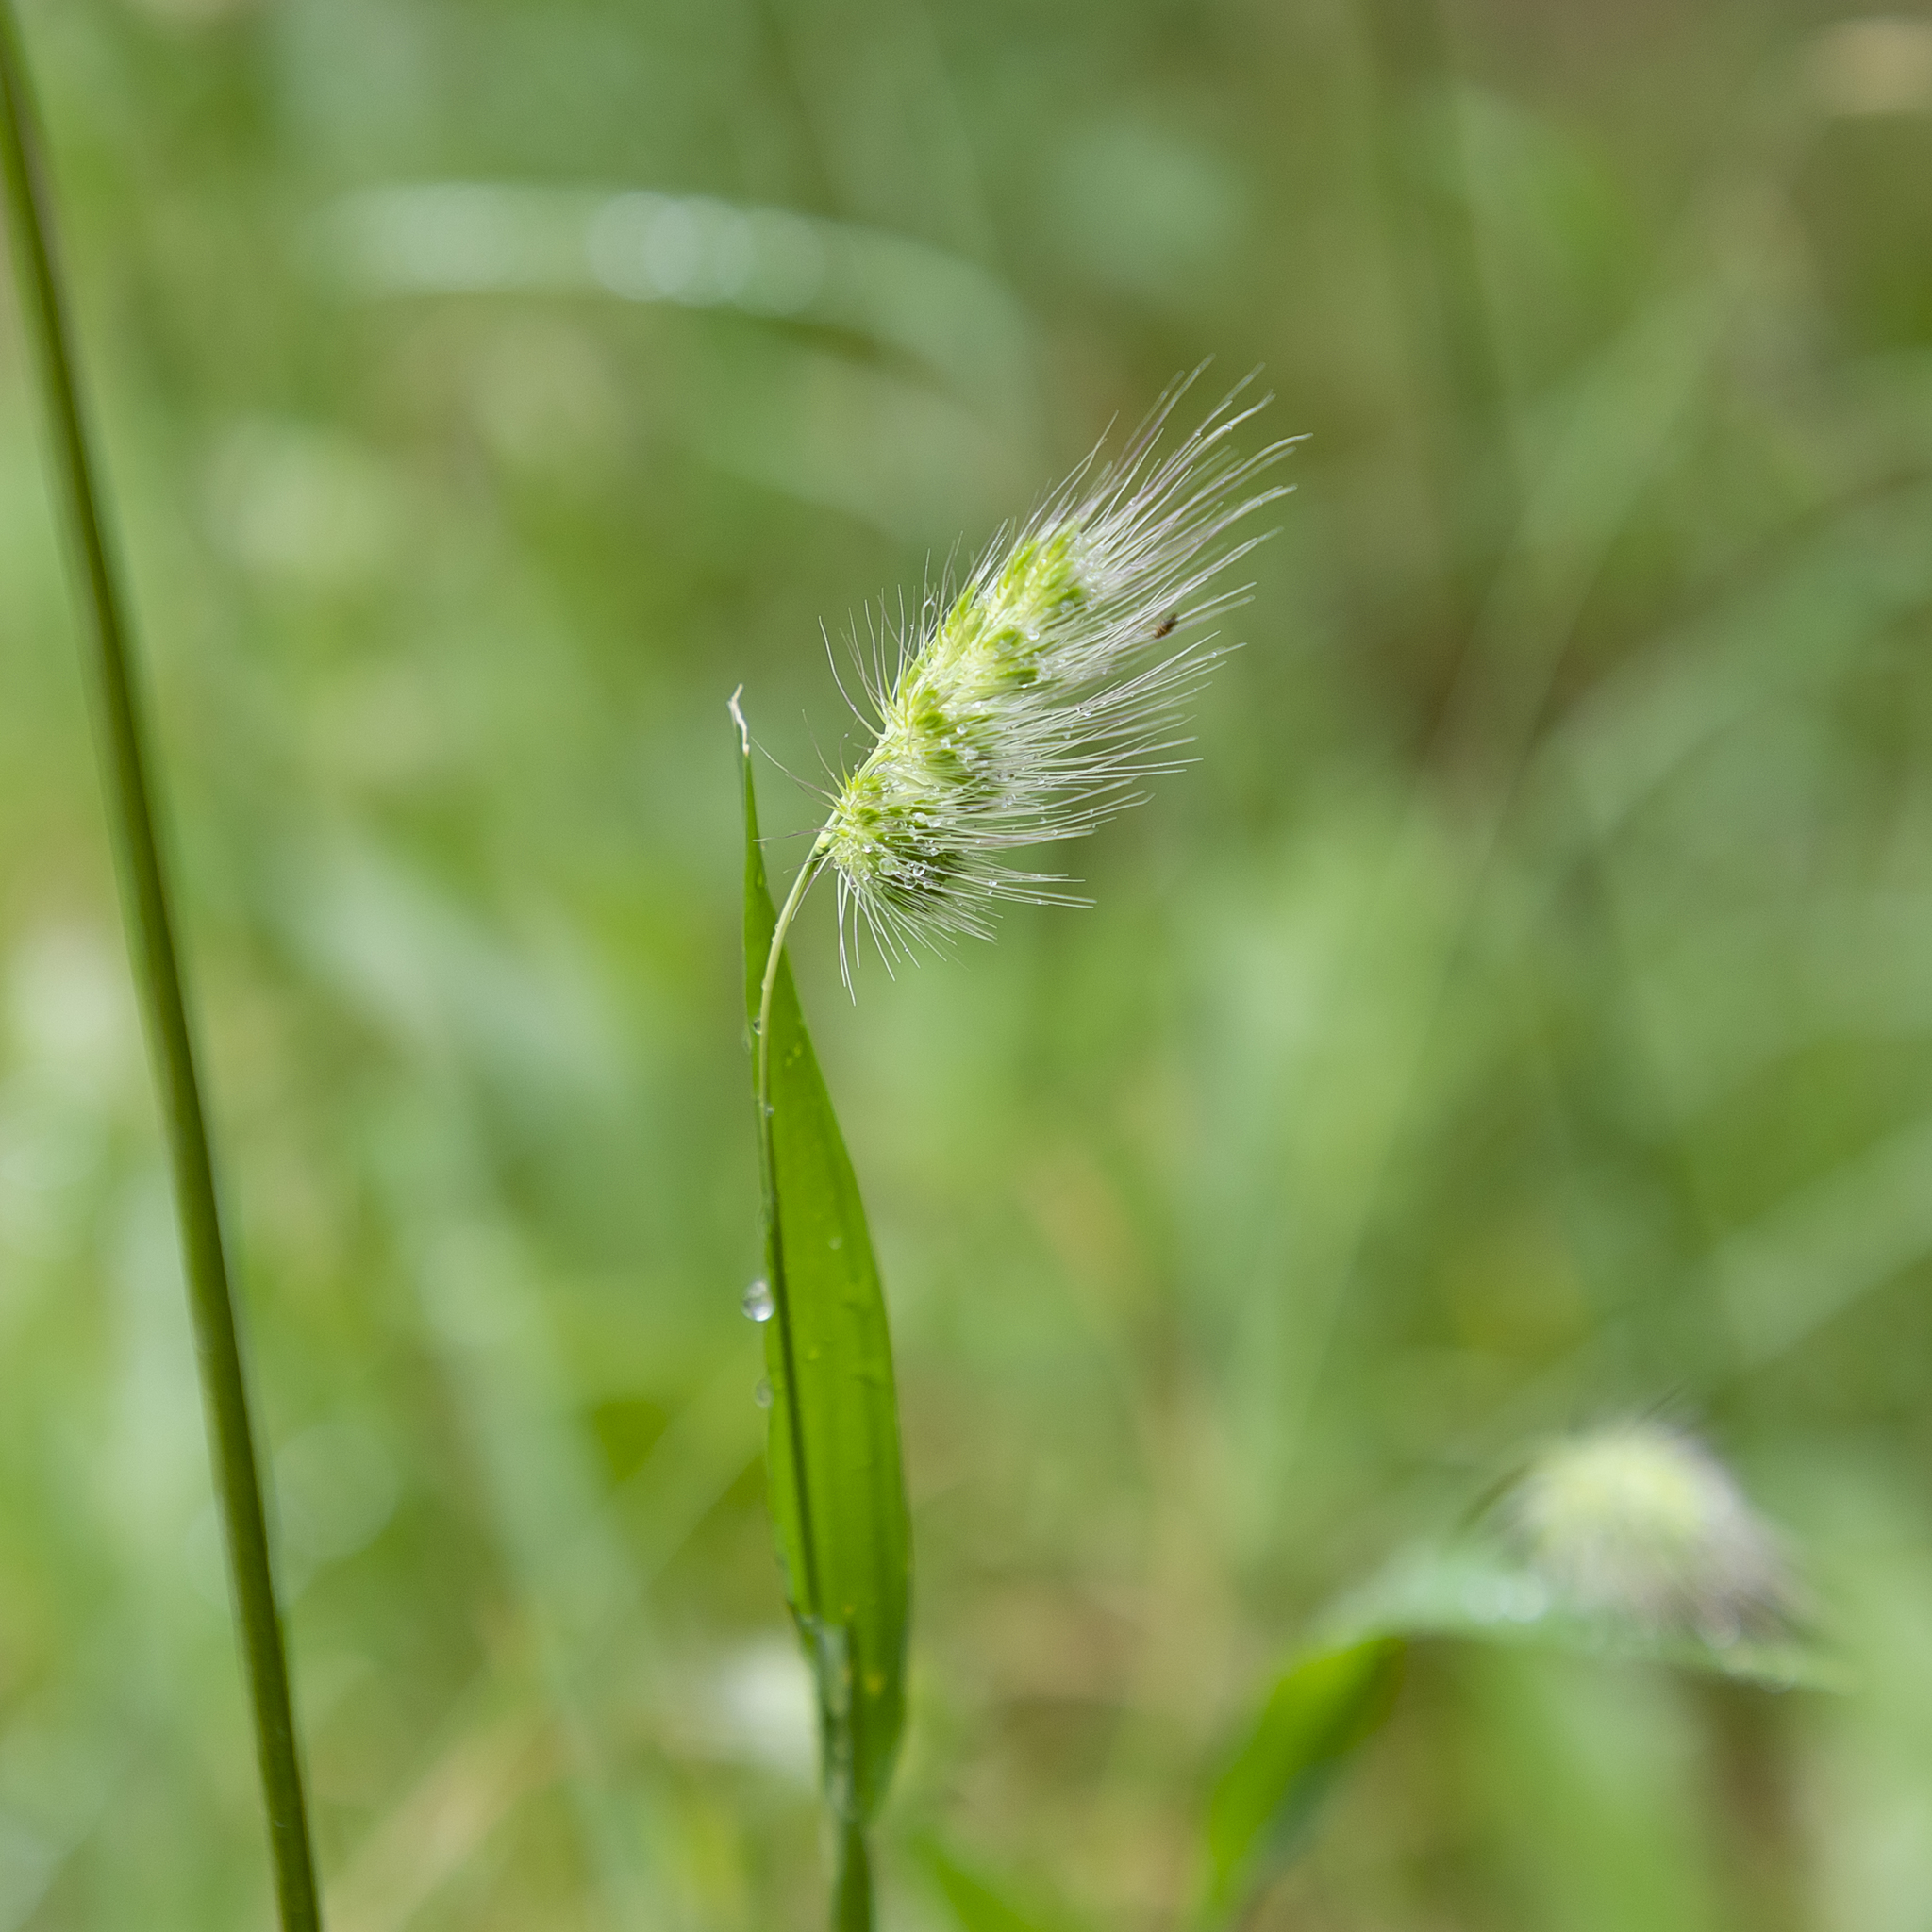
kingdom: Plantae
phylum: Tracheophyta
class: Liliopsida
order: Poales
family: Poaceae
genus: Cynosurus
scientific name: Cynosurus echinatus
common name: Rough dog's-tail
